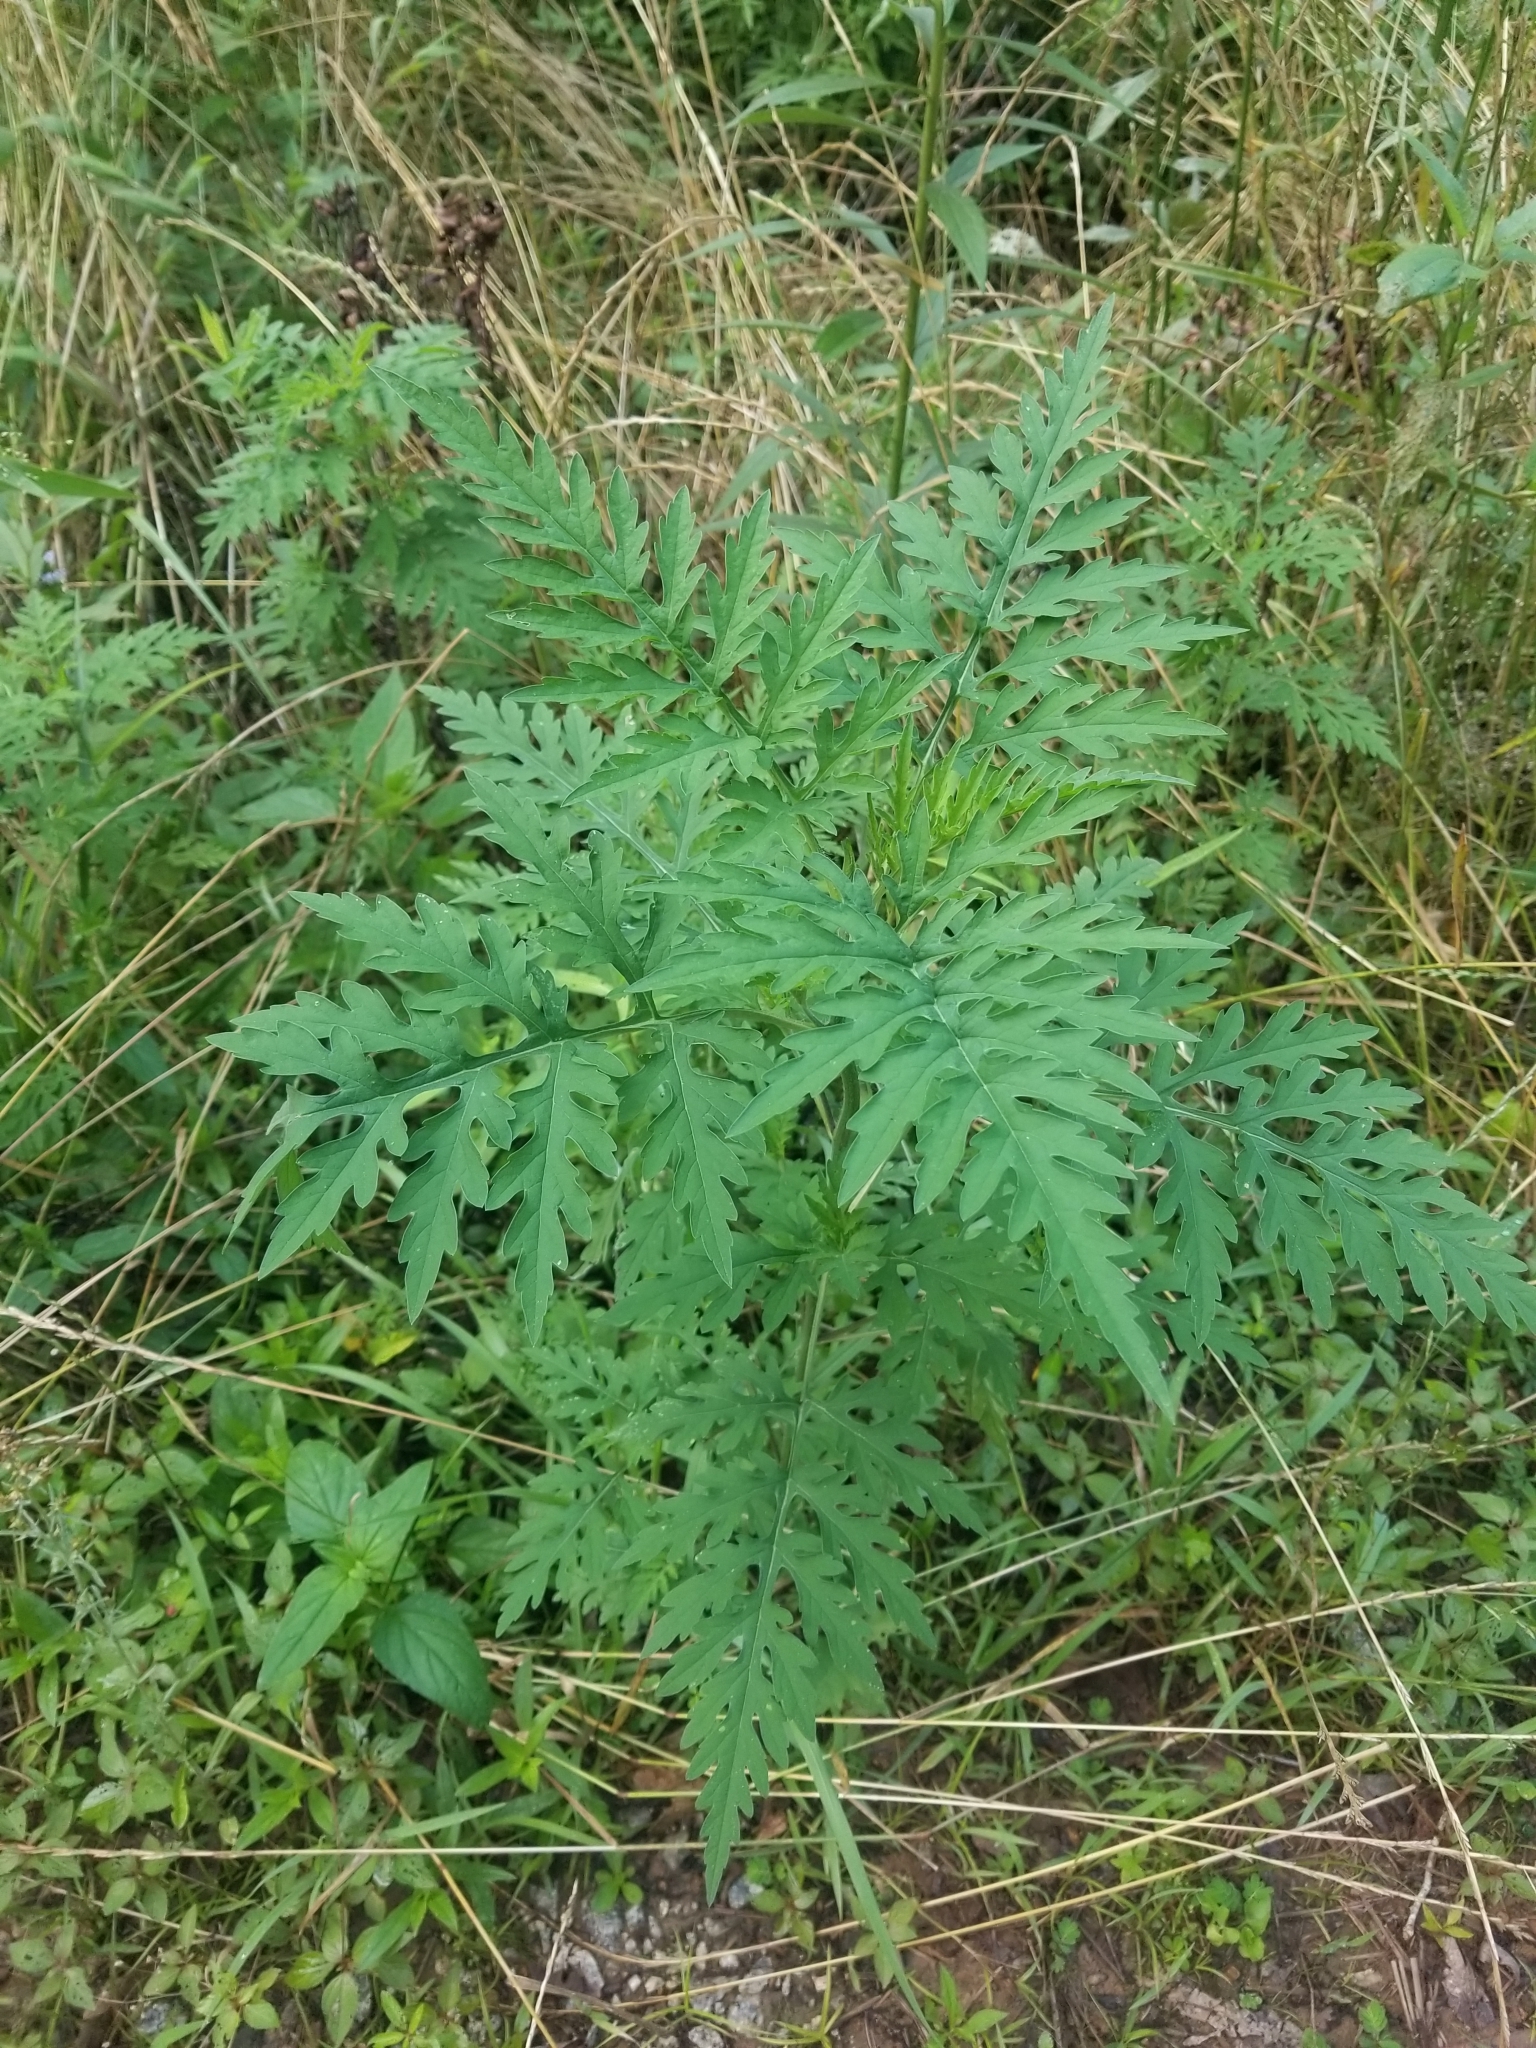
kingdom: Plantae
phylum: Tracheophyta
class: Magnoliopsida
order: Asterales
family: Asteraceae
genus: Ambrosia
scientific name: Ambrosia artemisiifolia
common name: Annual ragweed
